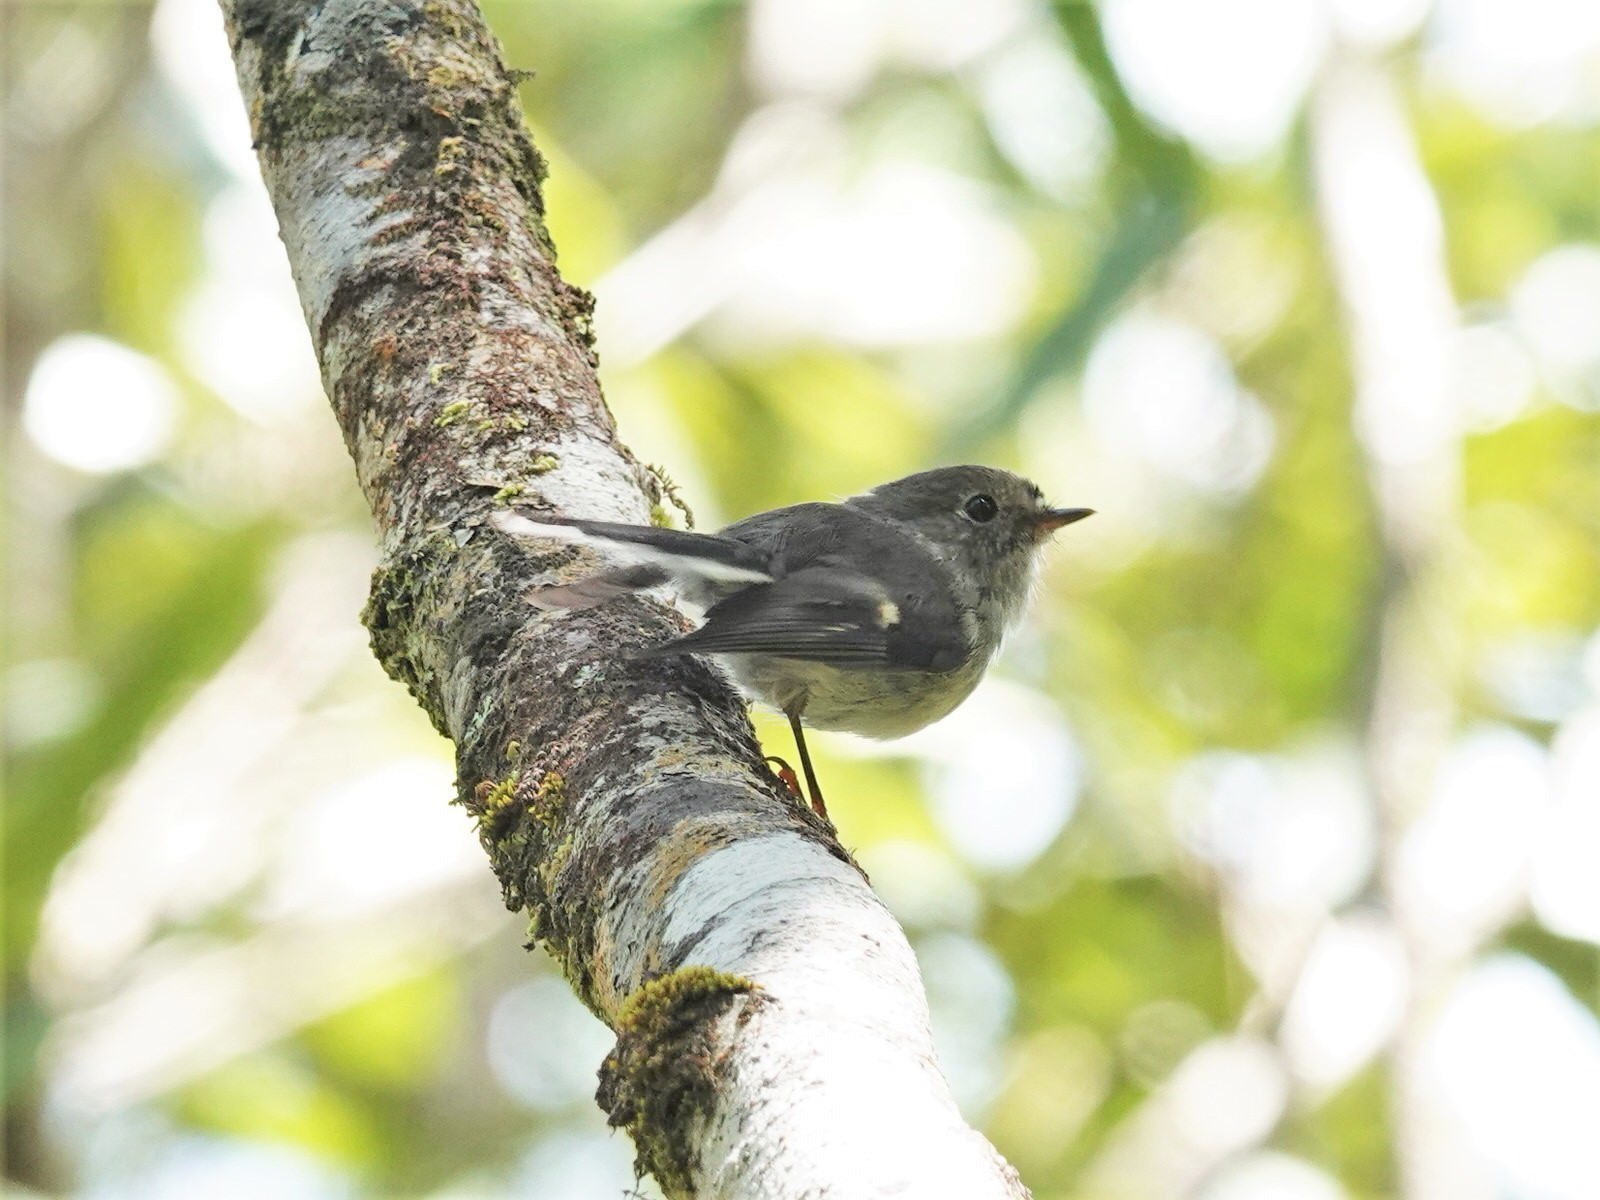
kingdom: Animalia
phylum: Chordata
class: Aves
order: Passeriformes
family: Petroicidae
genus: Petroica
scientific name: Petroica macrocephala
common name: Tomtit
